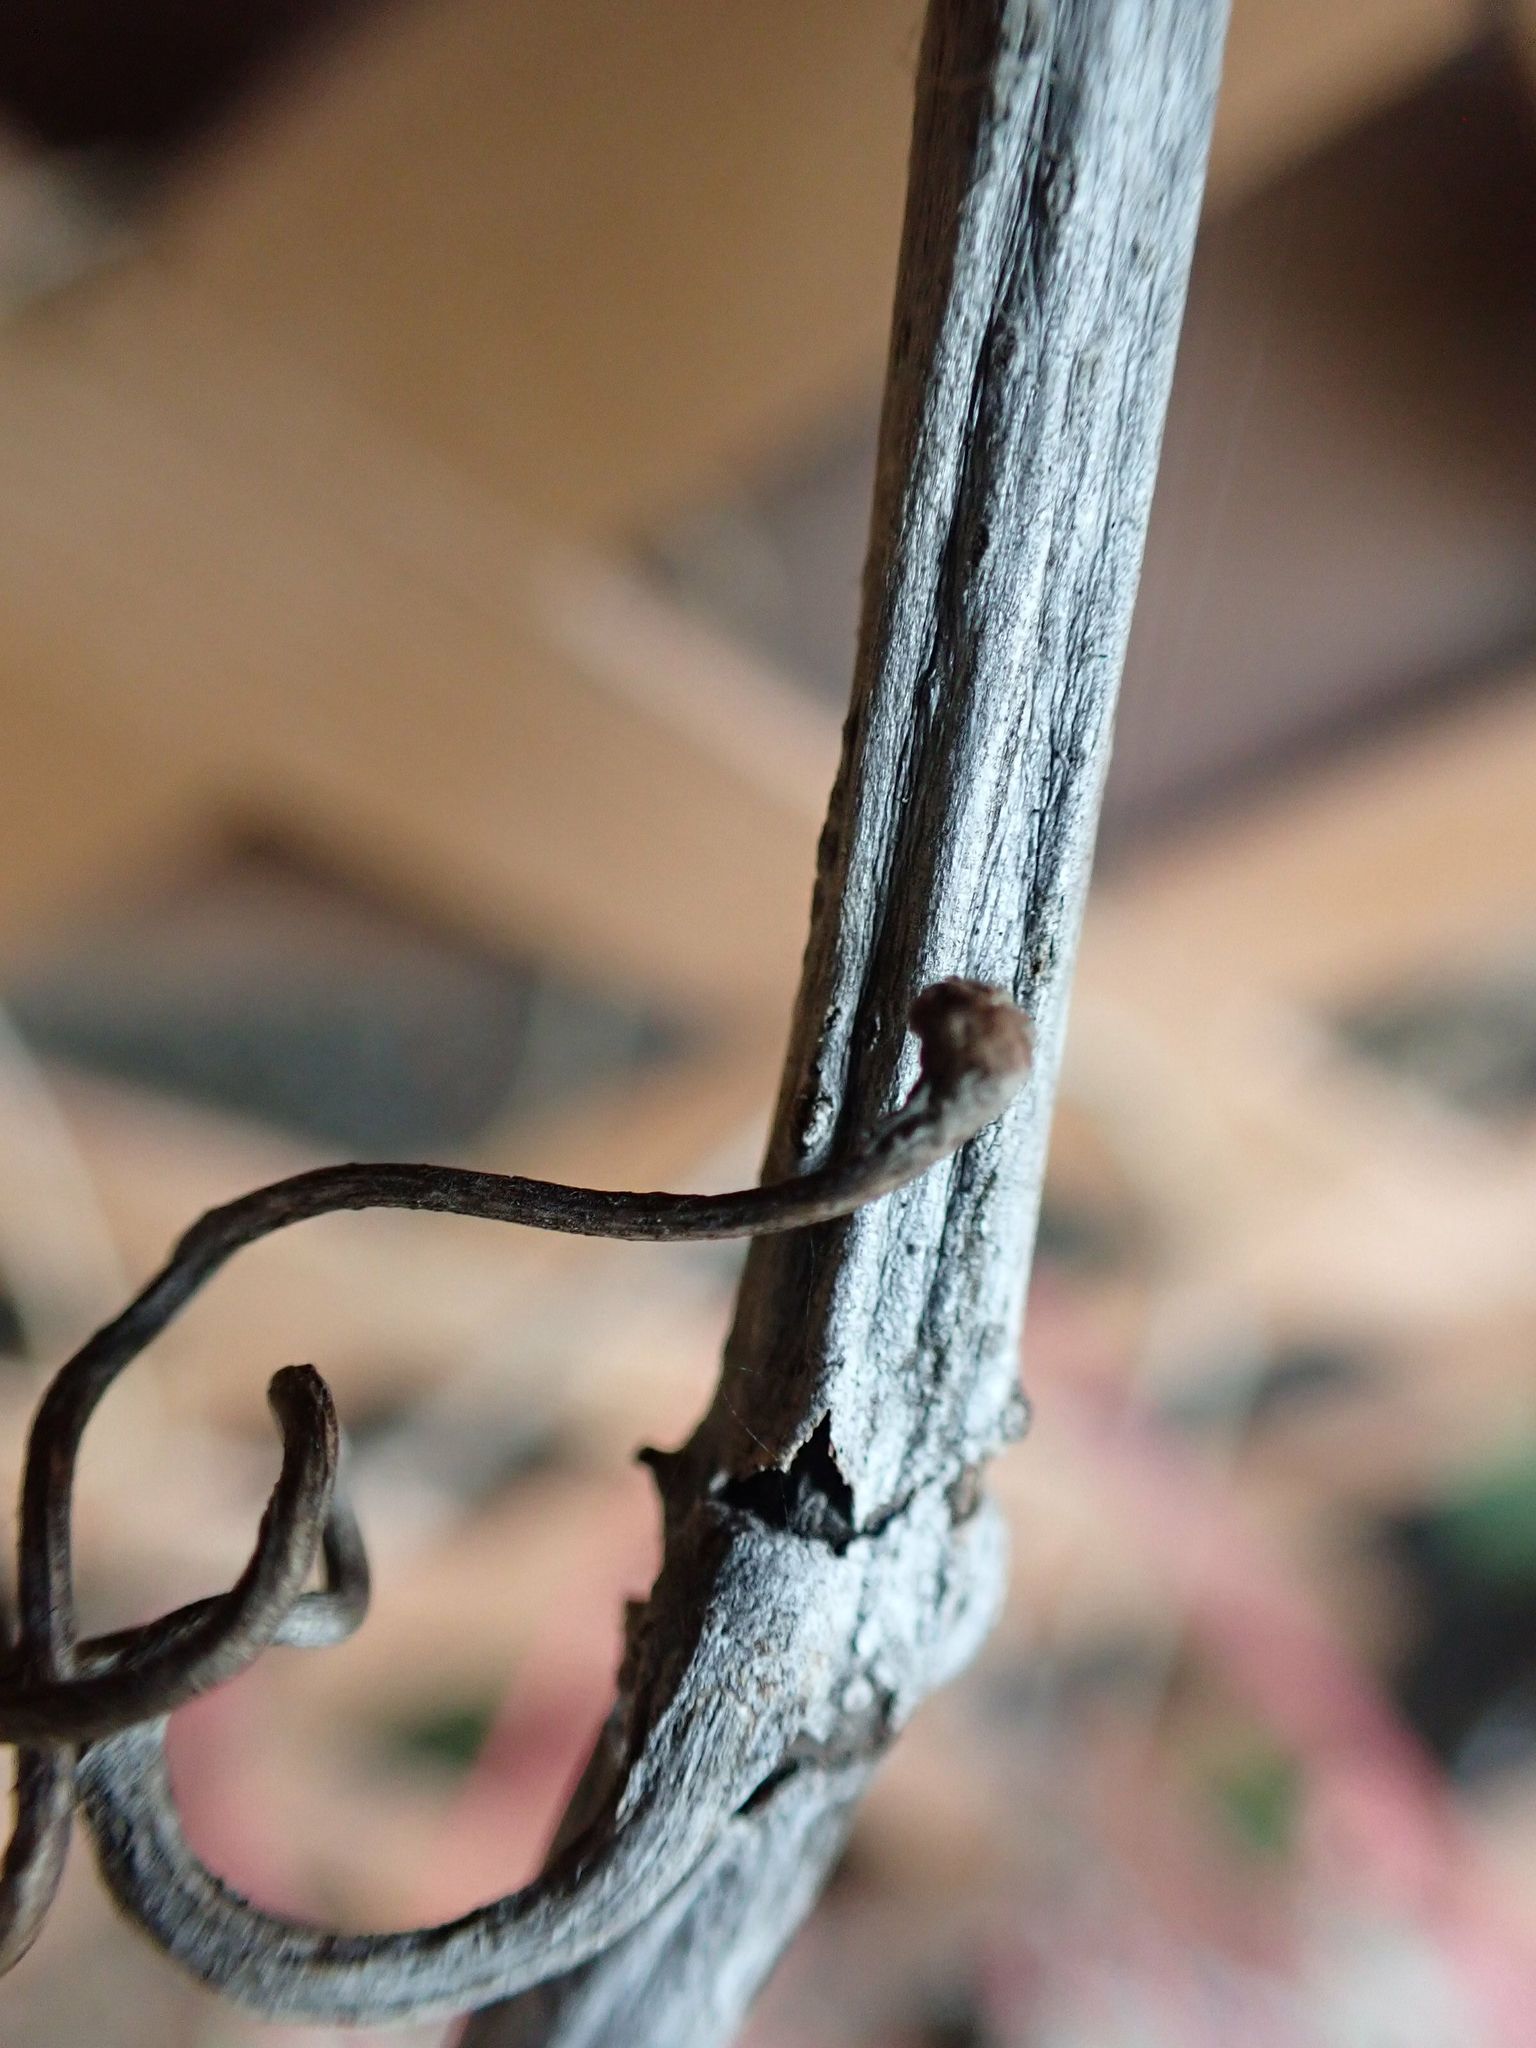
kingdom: Plantae
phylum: Tracheophyta
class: Magnoliopsida
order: Vitales
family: Vitaceae
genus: Parthenocissus
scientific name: Parthenocissus quinquefolia
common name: Virginia-creeper
